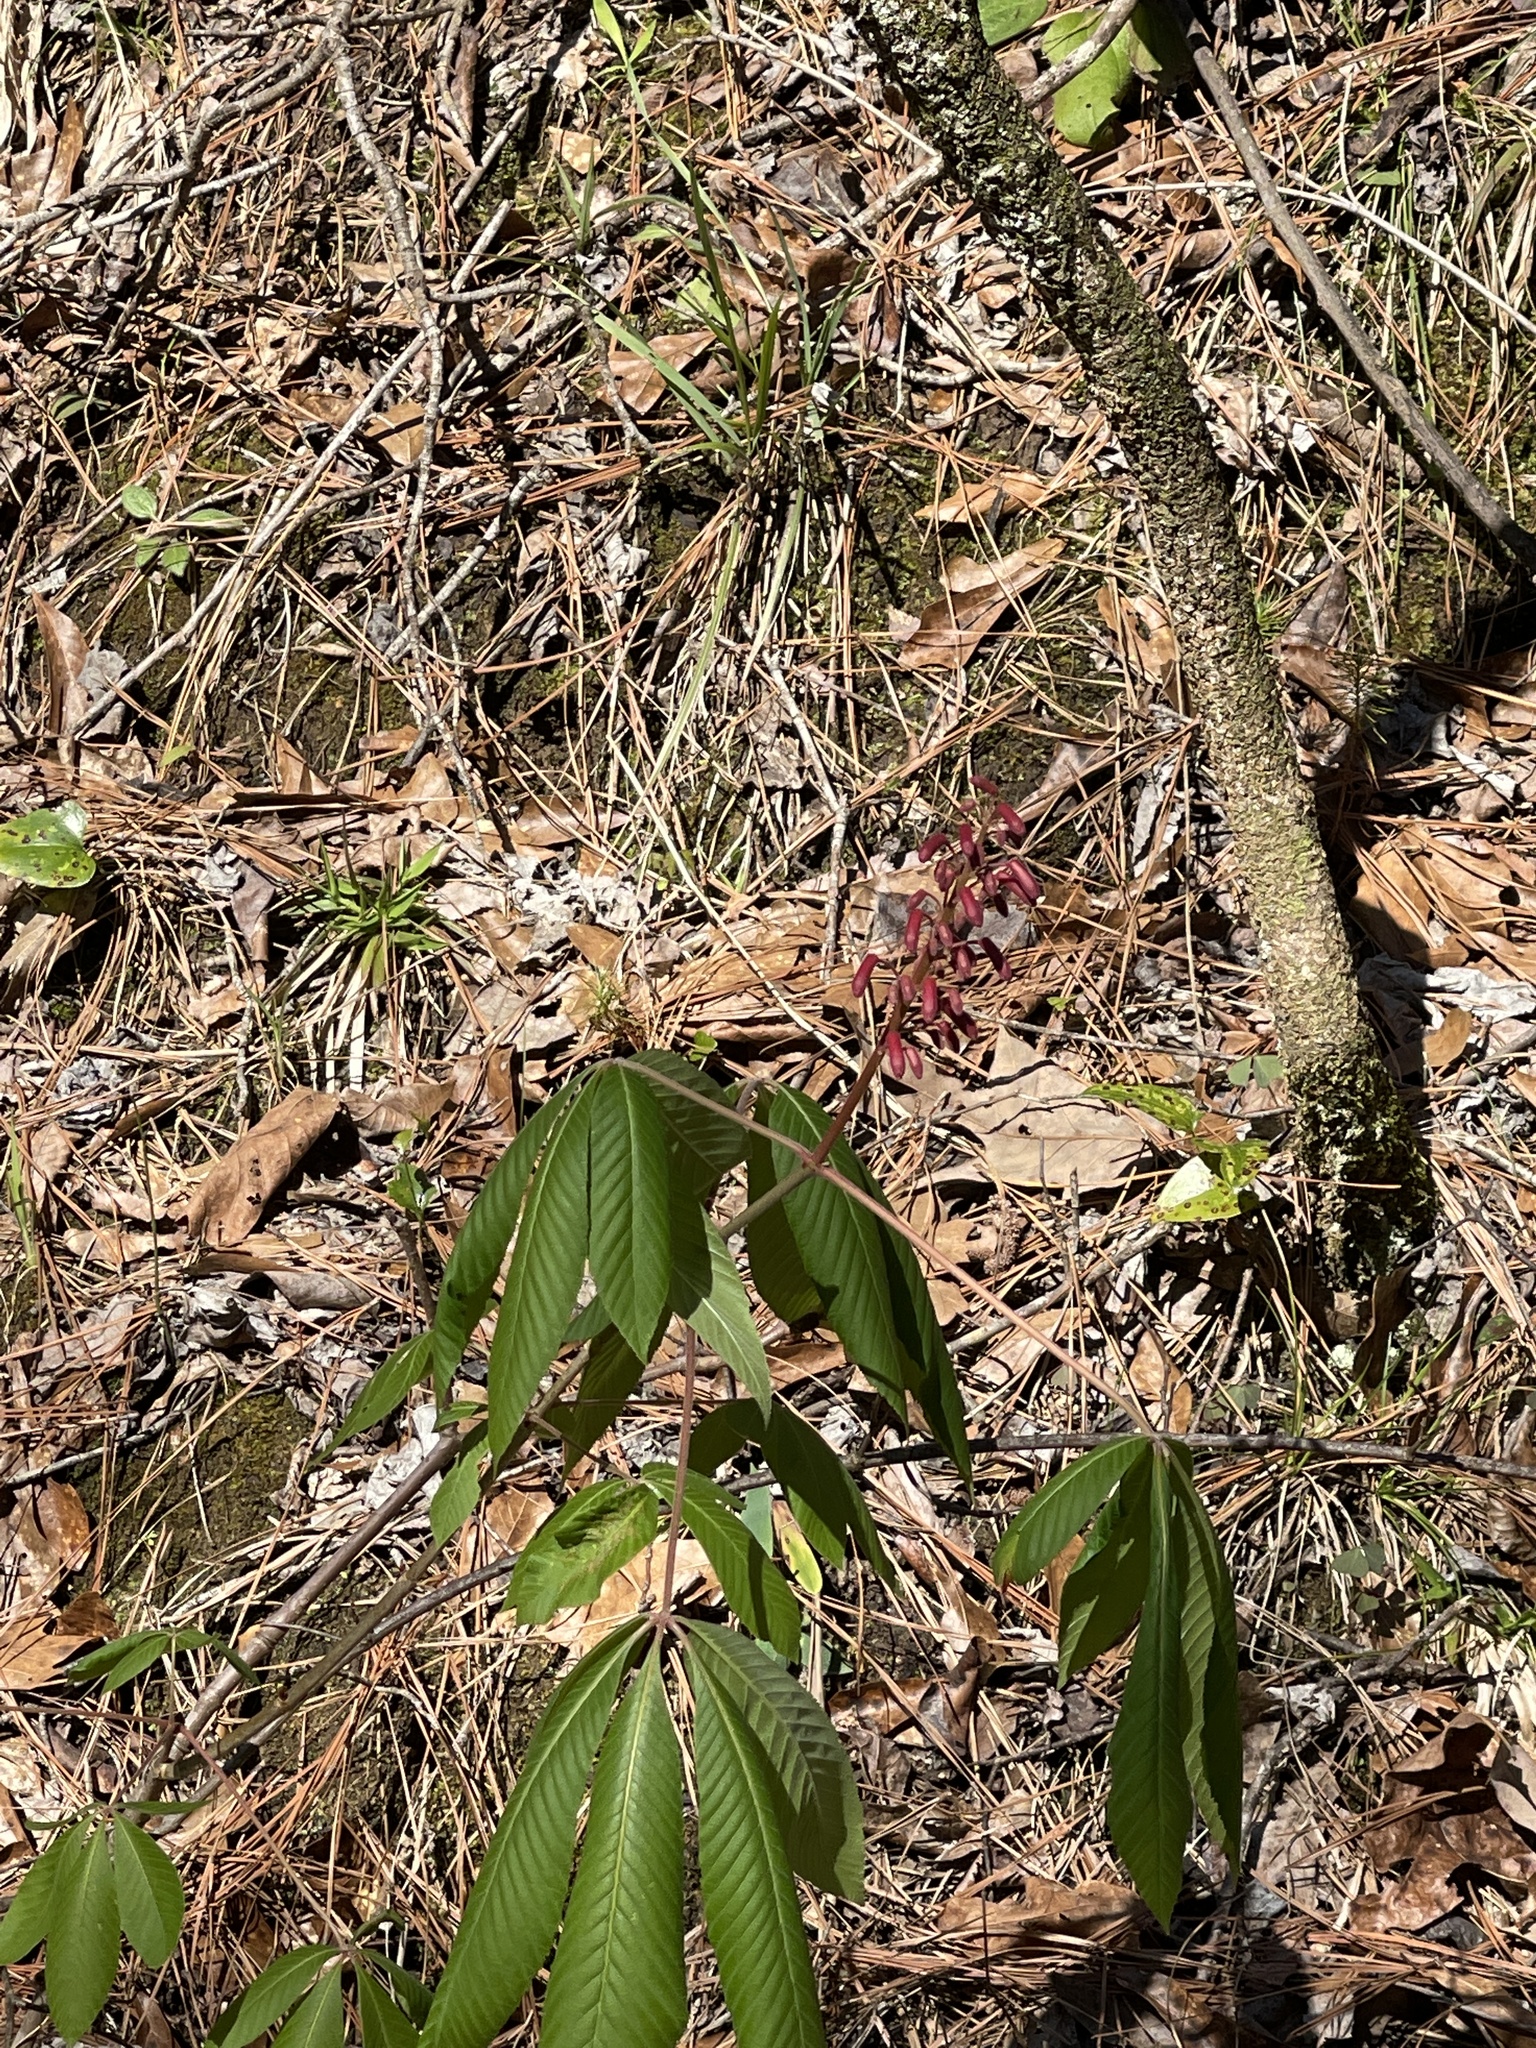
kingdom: Plantae
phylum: Tracheophyta
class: Magnoliopsida
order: Sapindales
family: Sapindaceae
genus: Aesculus
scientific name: Aesculus pavia
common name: Red buckeye
